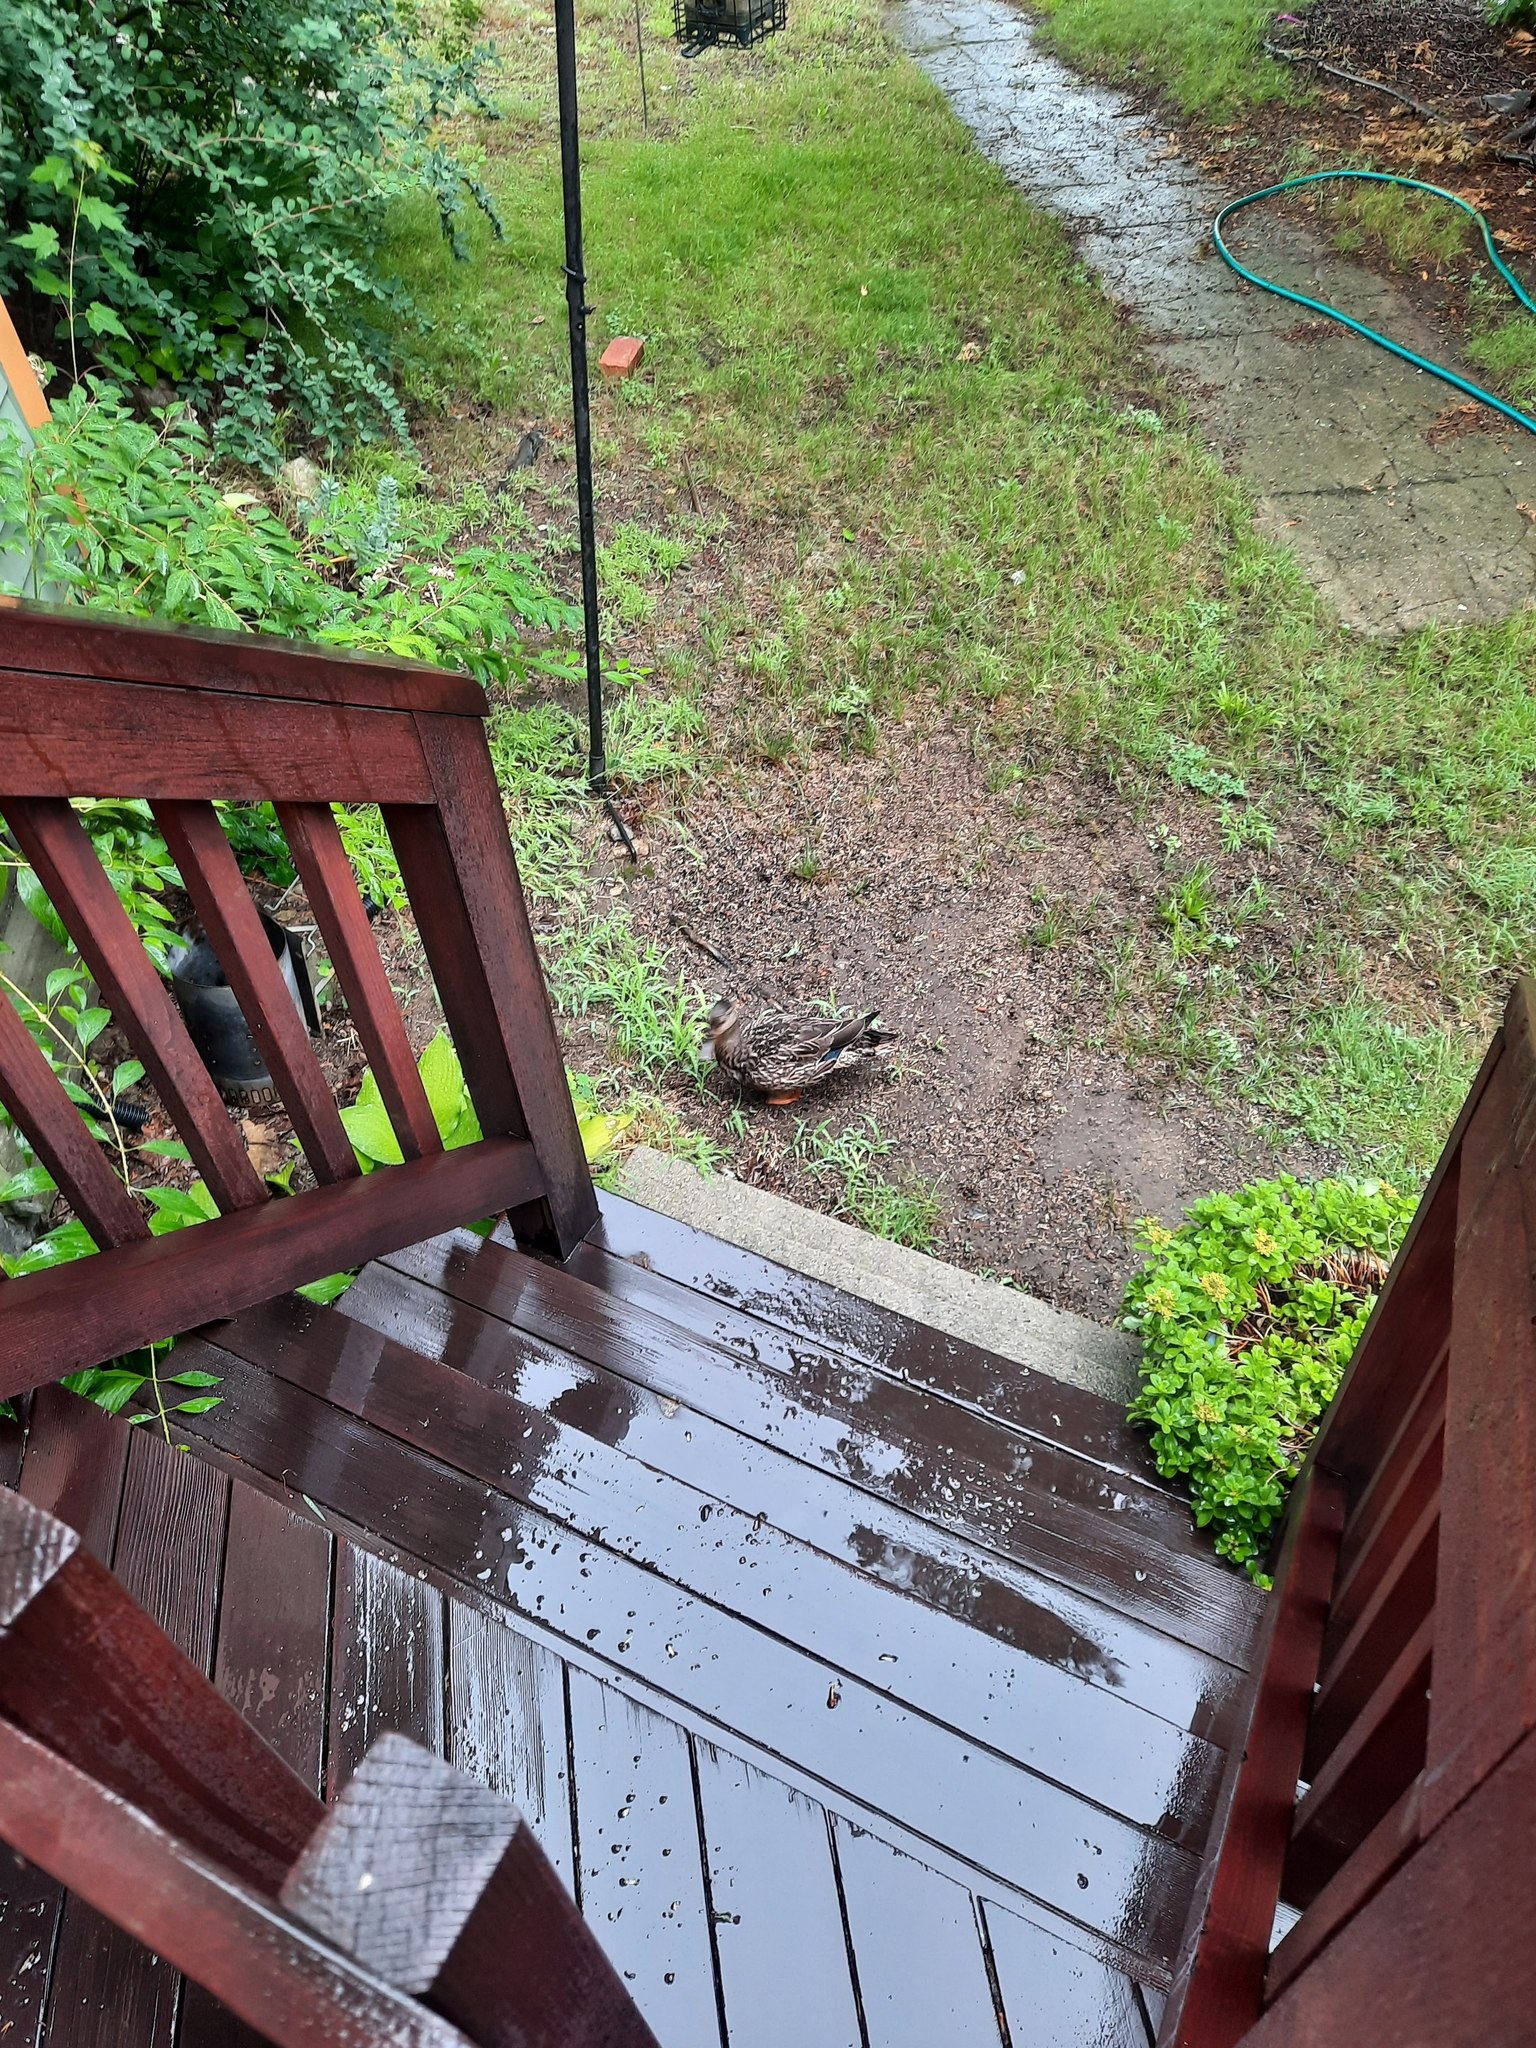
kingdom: Animalia
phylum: Chordata
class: Aves
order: Anseriformes
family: Anatidae
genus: Anas
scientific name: Anas platyrhynchos
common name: Mallard
